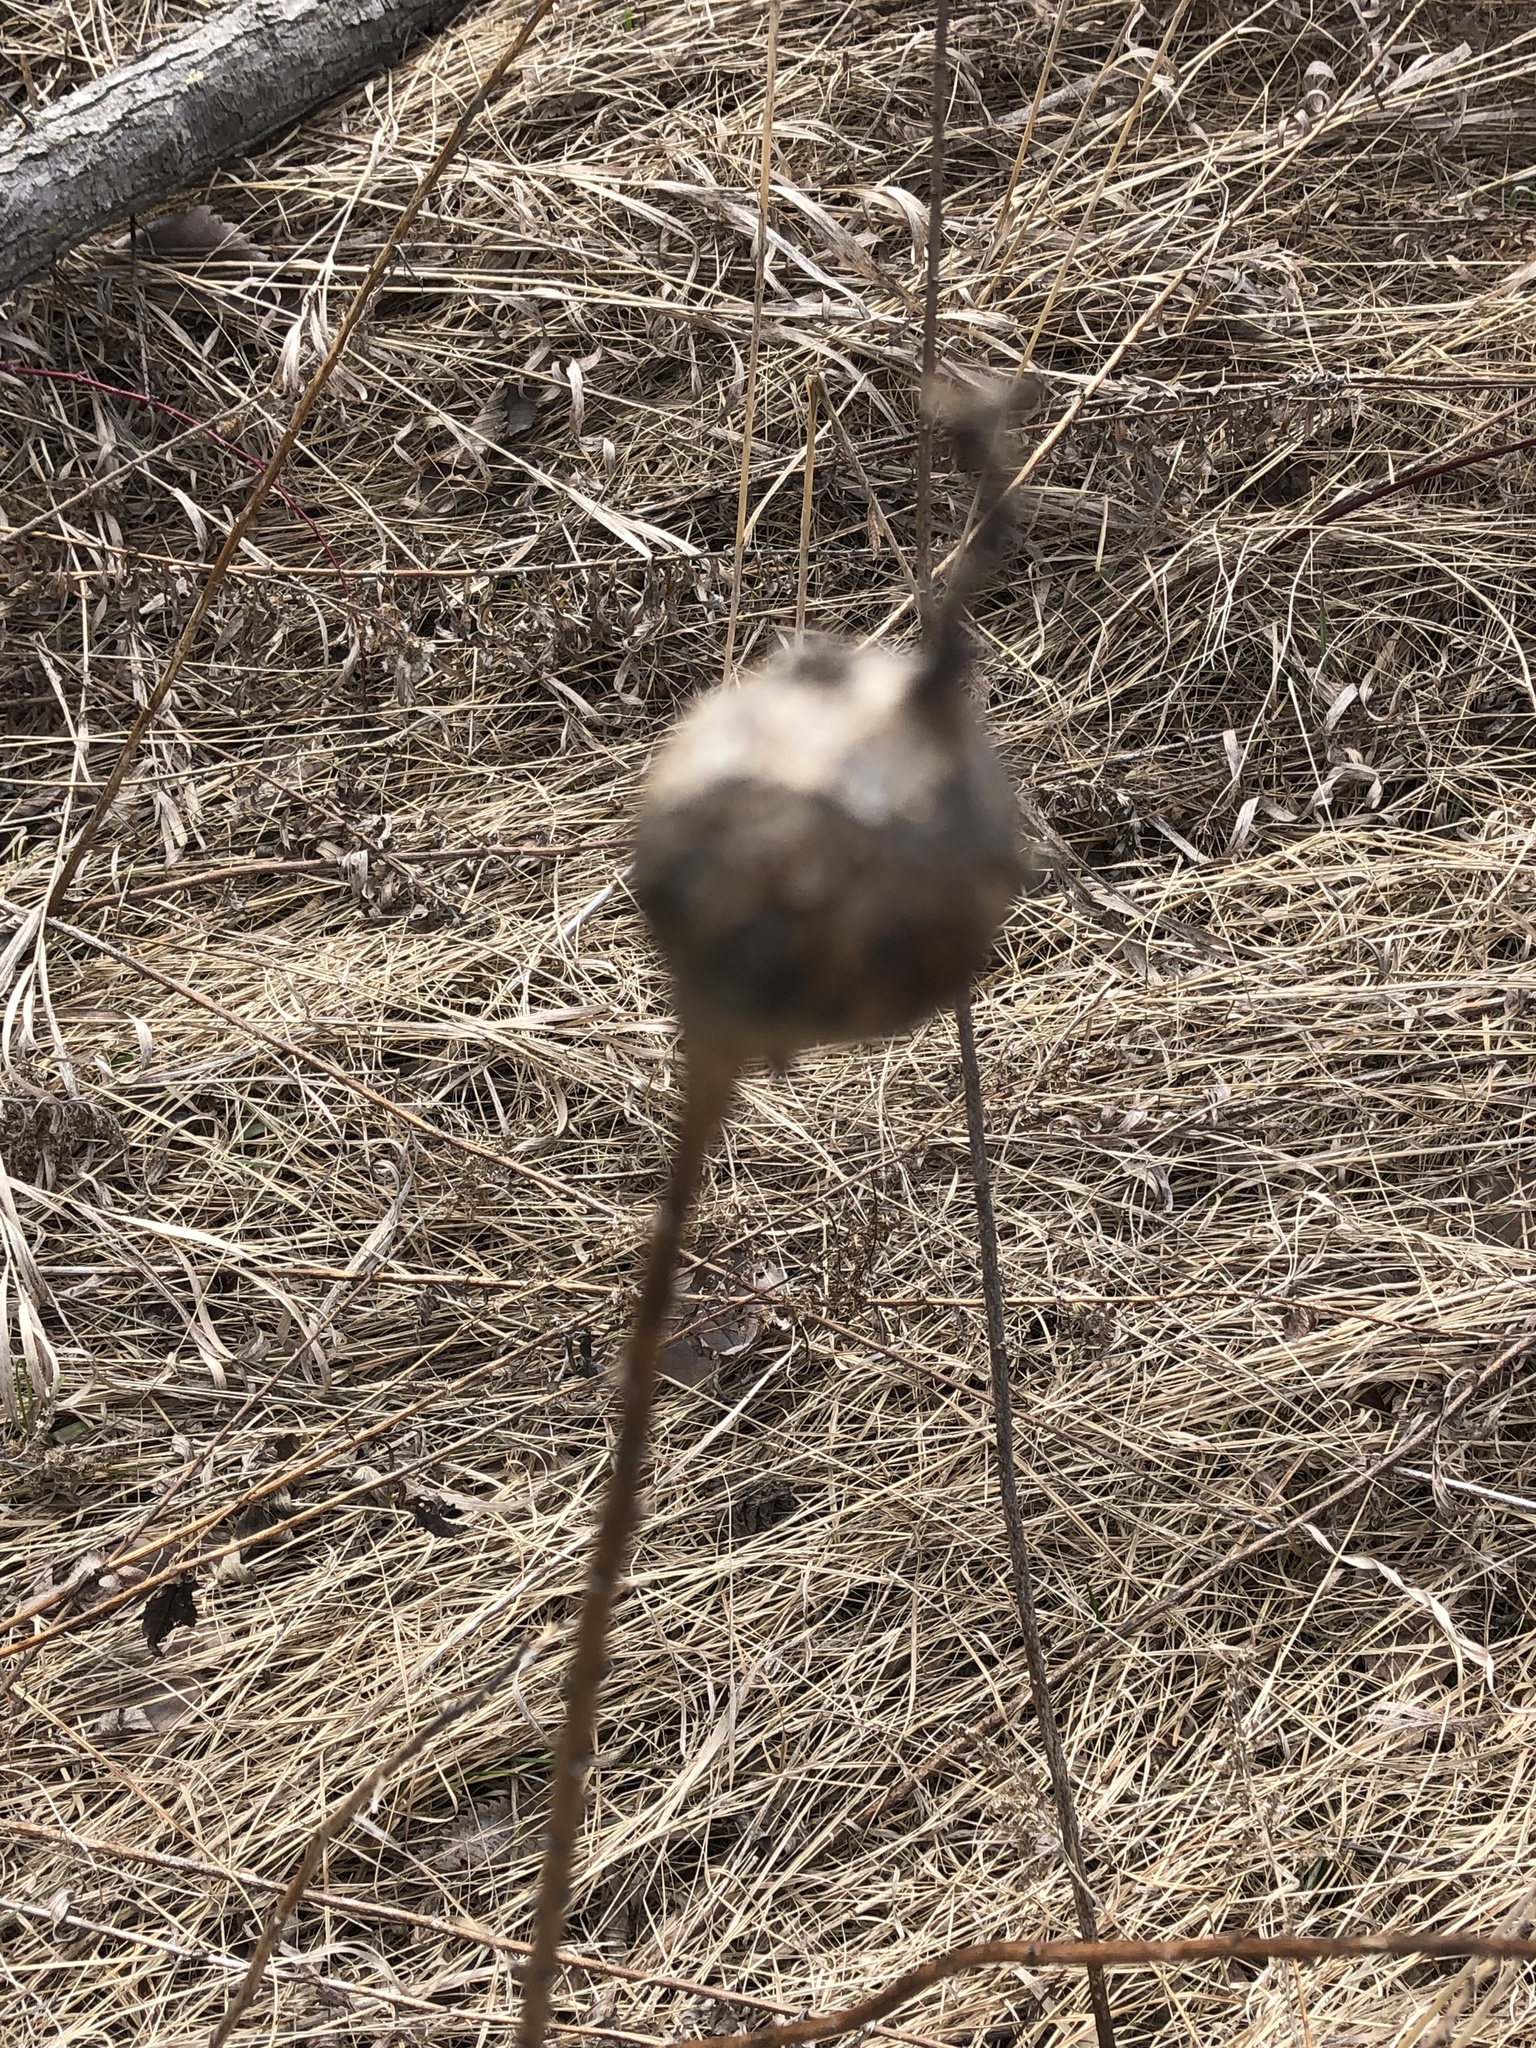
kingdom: Animalia
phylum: Arthropoda
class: Insecta
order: Diptera
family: Tephritidae
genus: Eurosta
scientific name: Eurosta solidaginis
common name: Goldenrod gall fly
